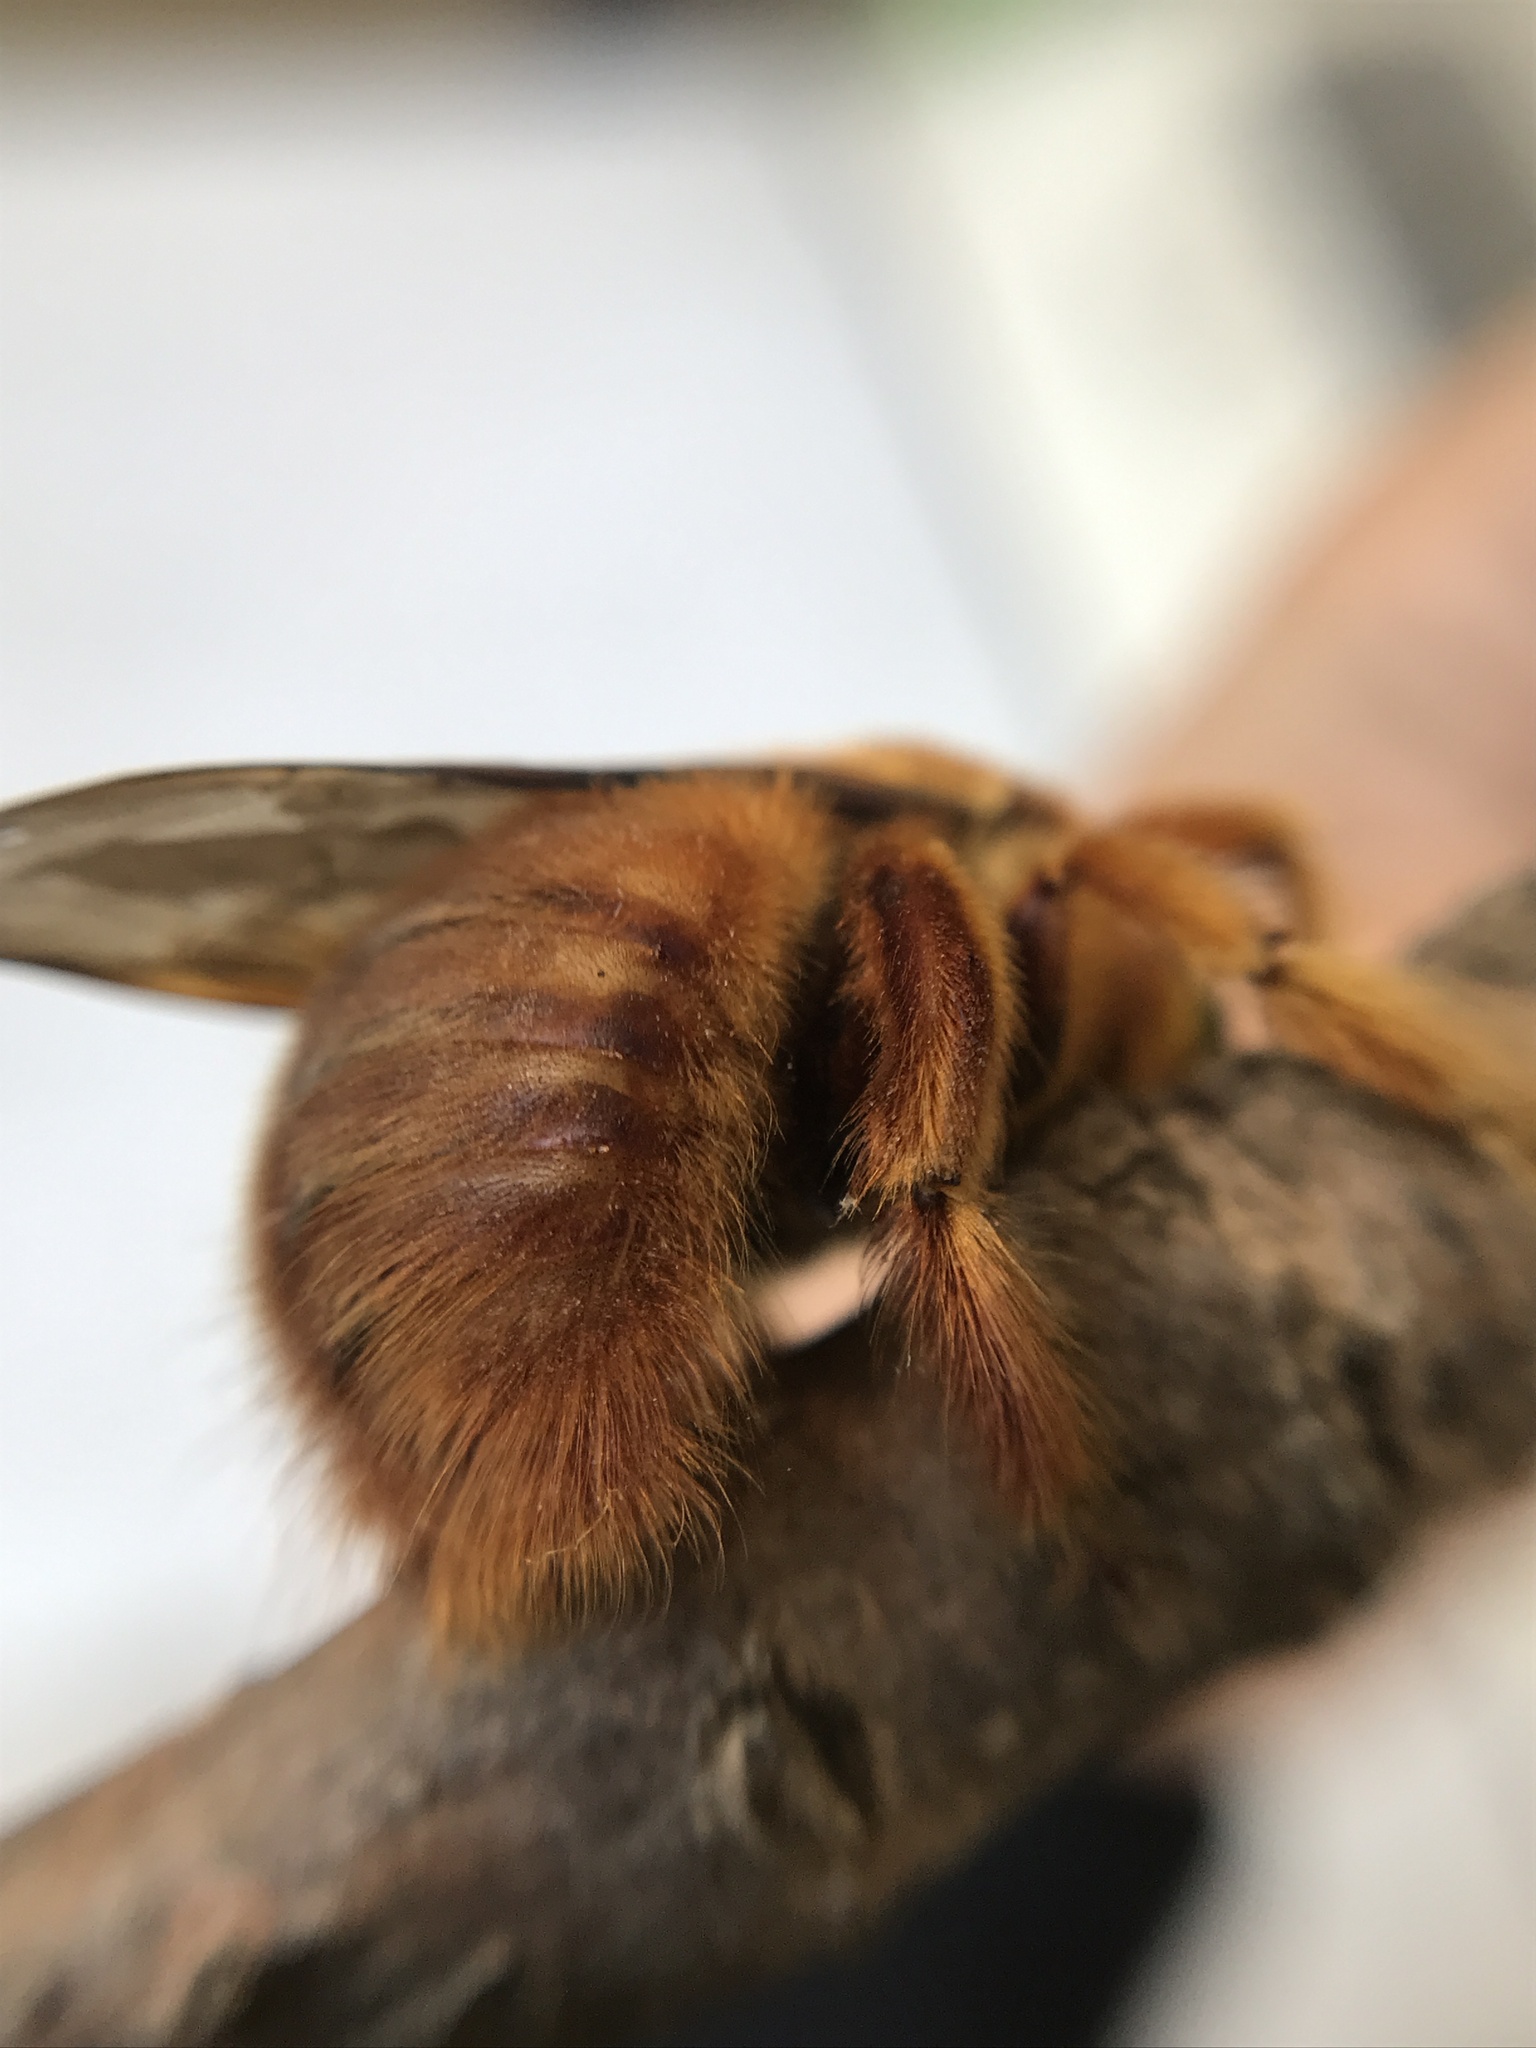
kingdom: Animalia
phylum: Arthropoda
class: Insecta
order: Hymenoptera
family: Apidae
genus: Xylocopa
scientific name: Xylocopa augusti
